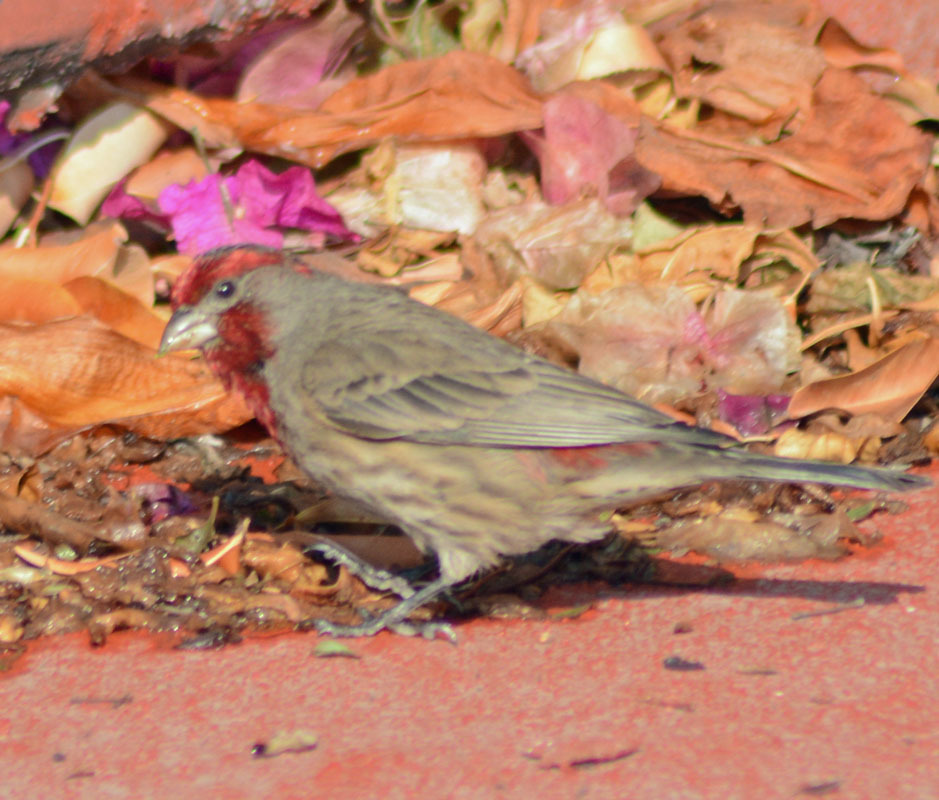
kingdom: Animalia
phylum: Chordata
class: Aves
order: Passeriformes
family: Fringillidae
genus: Haemorhous
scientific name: Haemorhous mexicanus
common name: House finch
